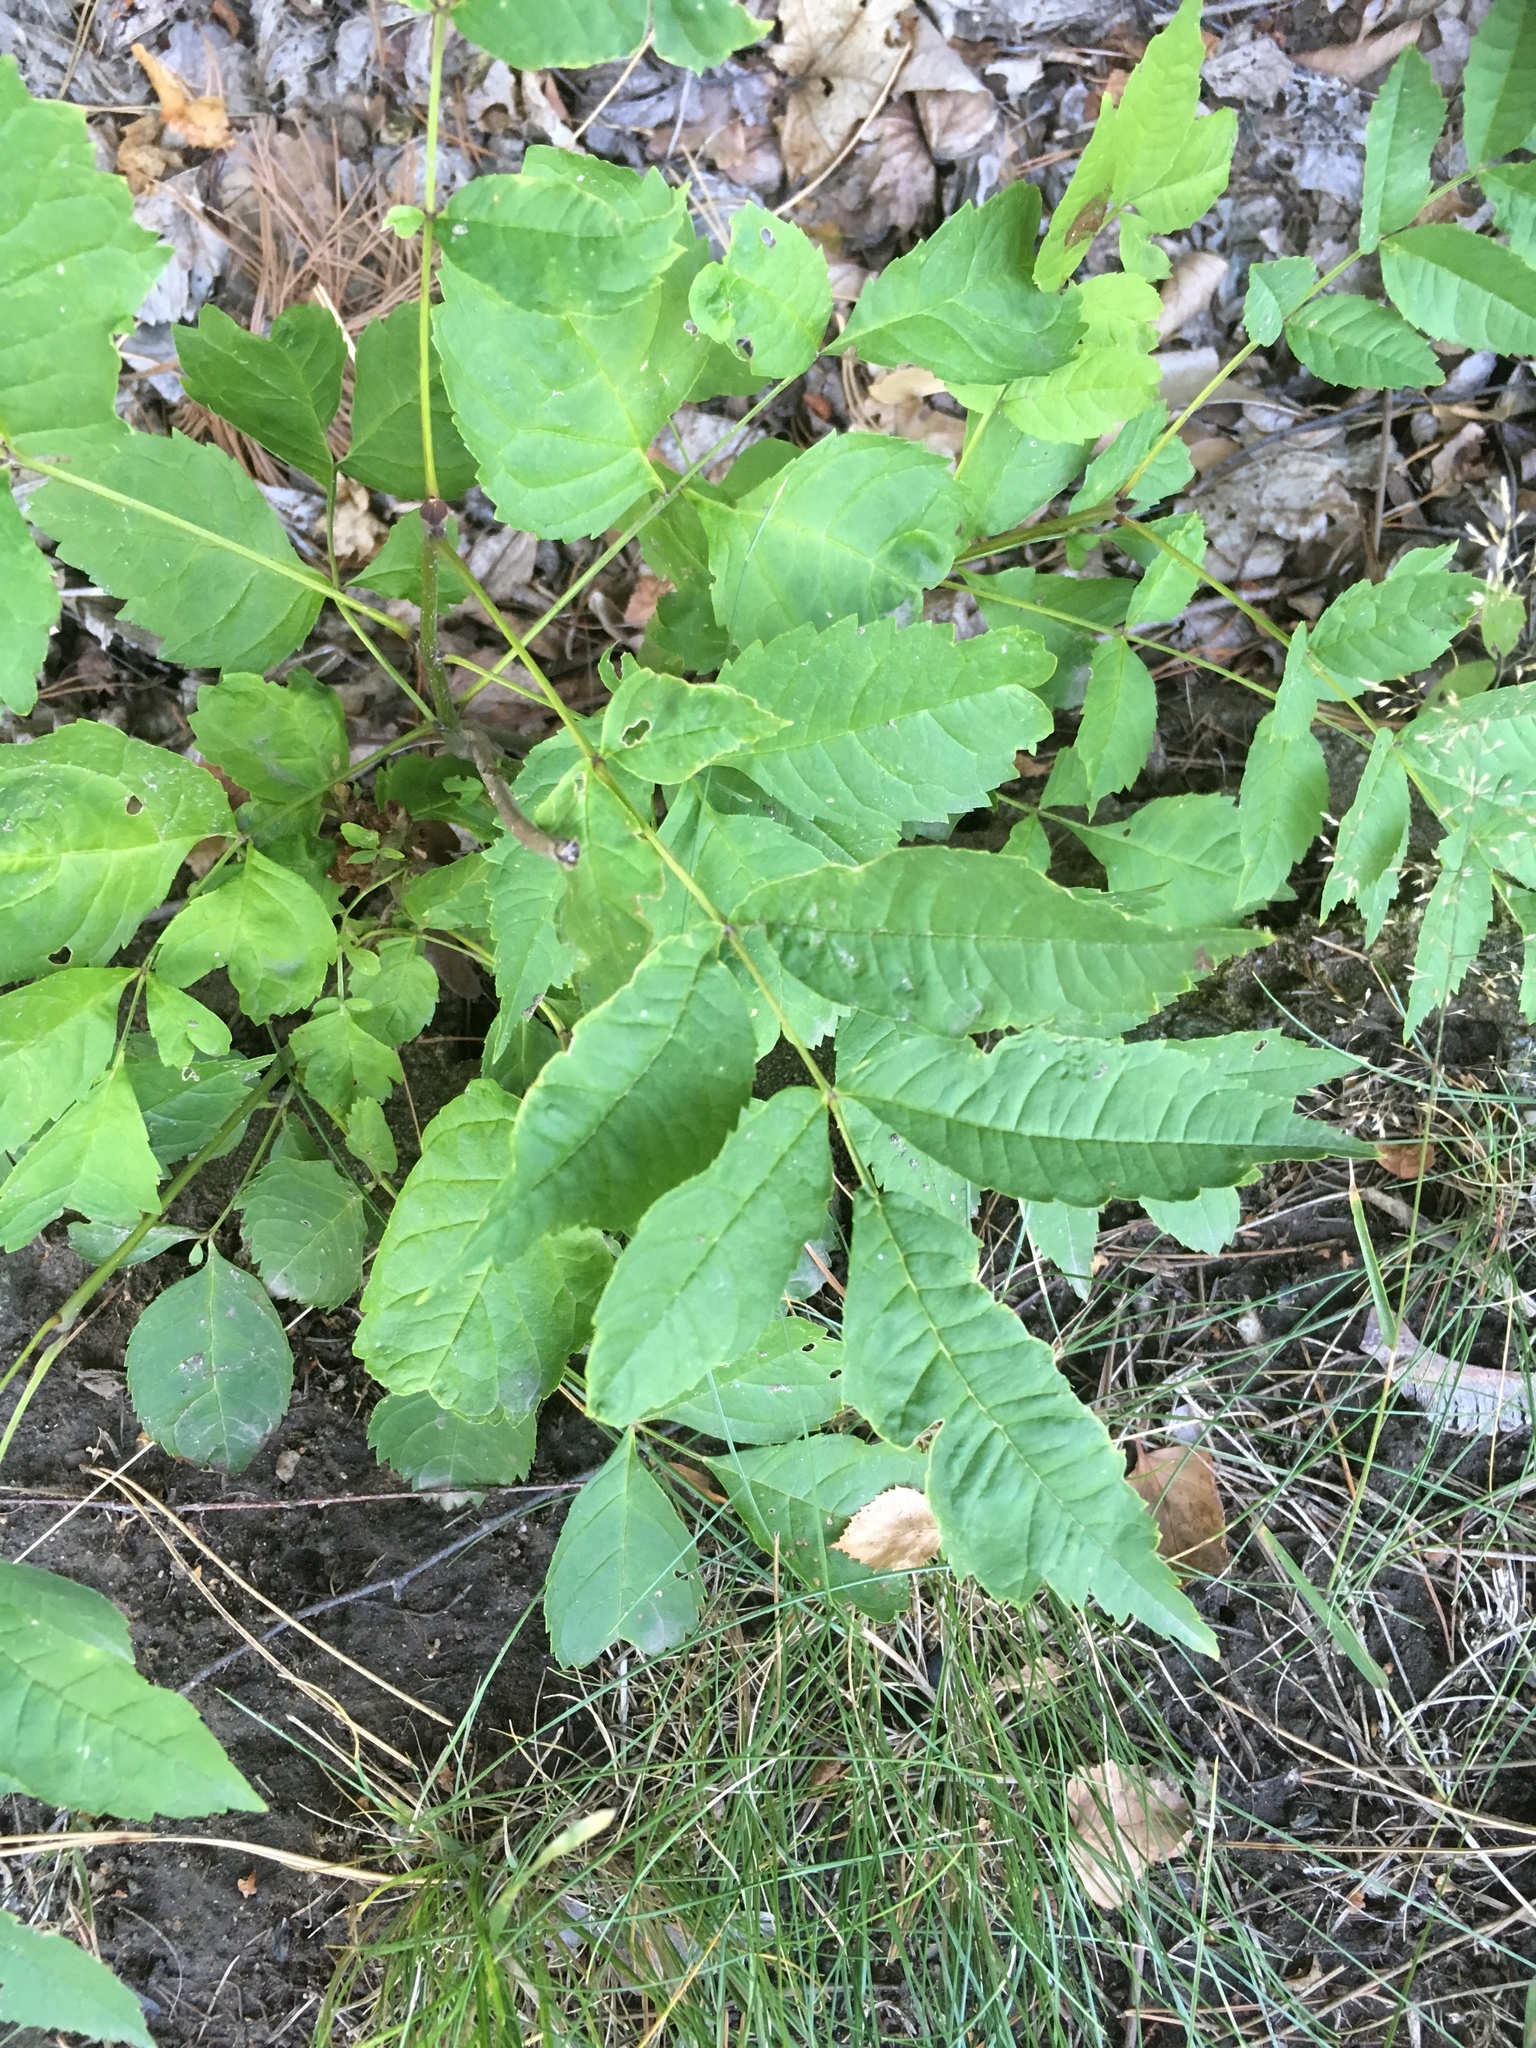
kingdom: Plantae
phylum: Tracheophyta
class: Magnoliopsida
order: Lamiales
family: Oleaceae
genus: Fraxinus
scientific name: Fraxinus excelsior
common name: European ash
